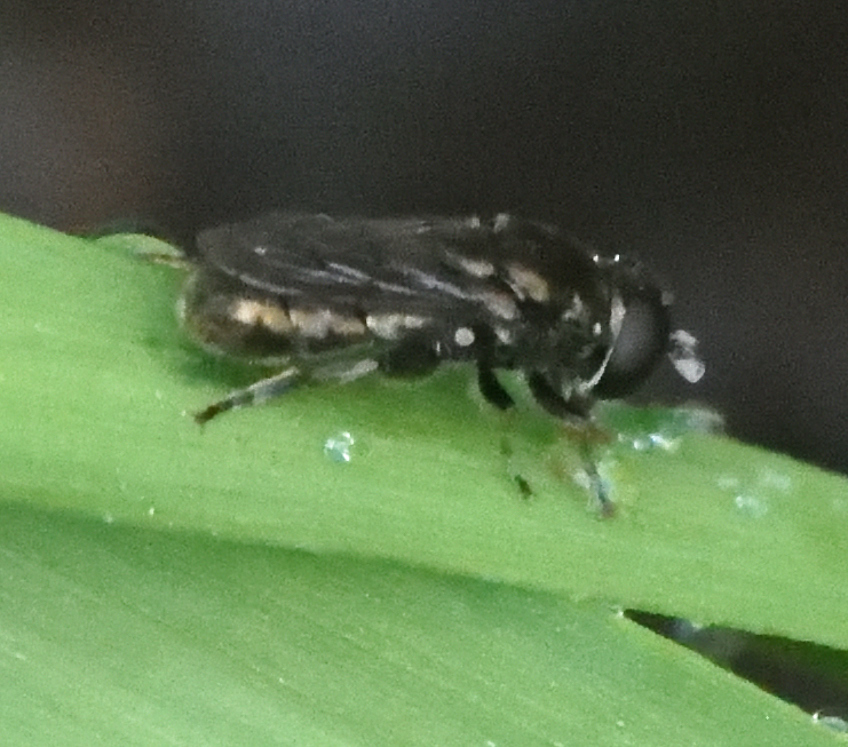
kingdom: Animalia
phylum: Arthropoda
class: Insecta
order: Diptera
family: Syrphidae
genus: Eumerus
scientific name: Eumerus
